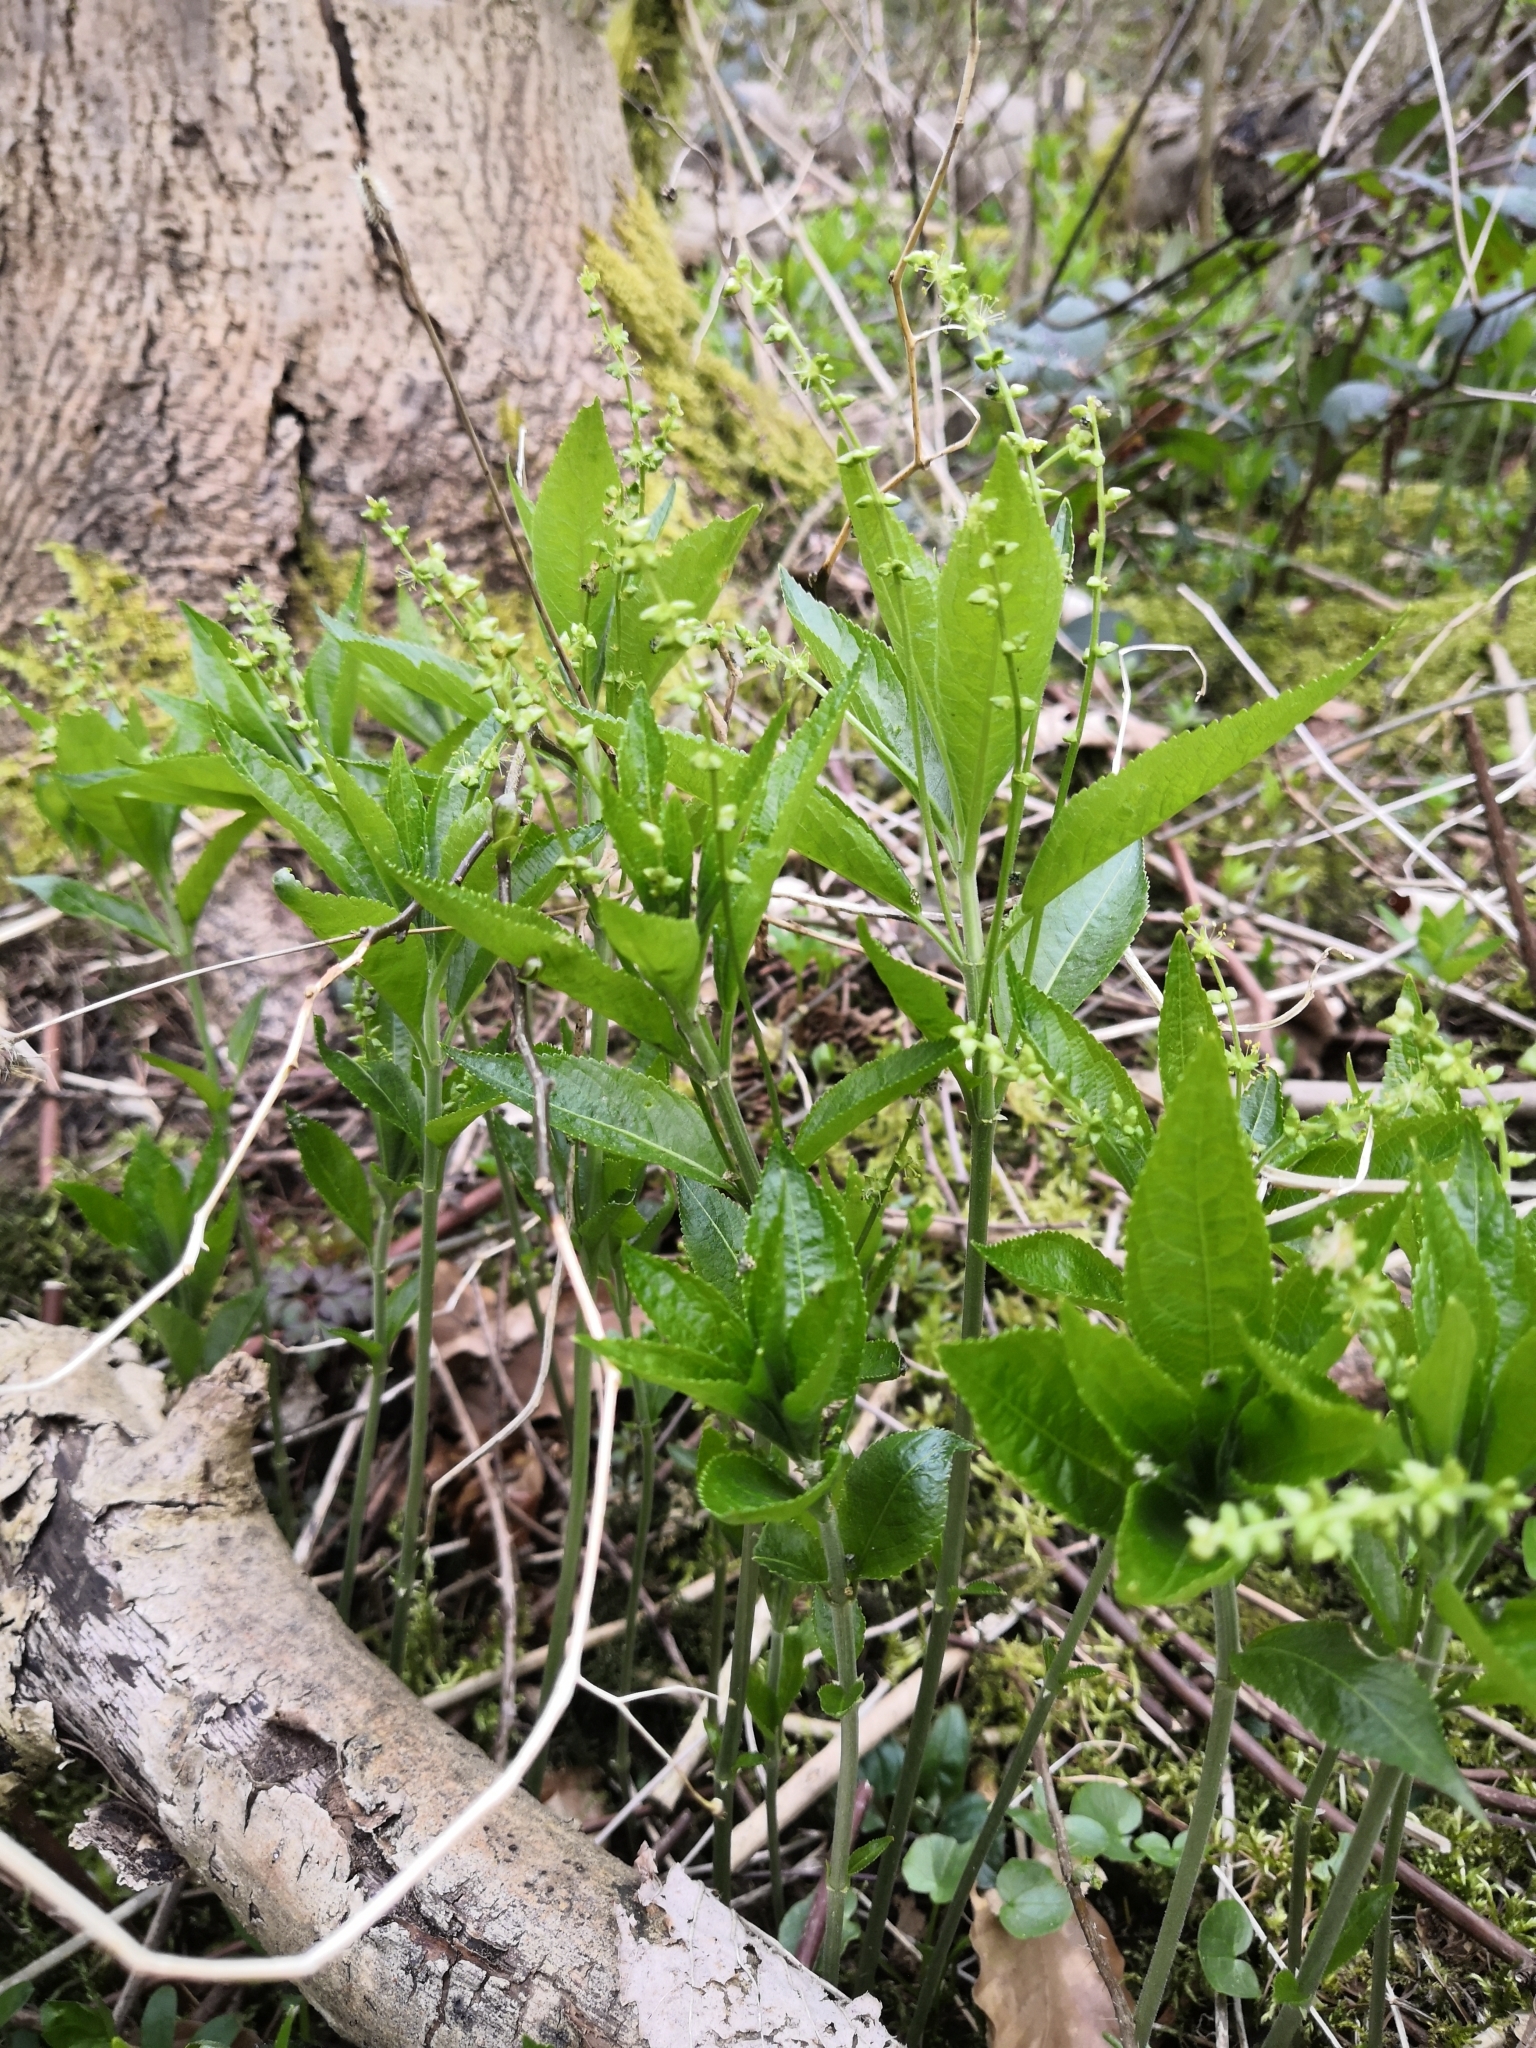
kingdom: Plantae
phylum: Tracheophyta
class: Magnoliopsida
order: Malpighiales
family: Euphorbiaceae
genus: Mercurialis
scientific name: Mercurialis perennis
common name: Dog mercury
